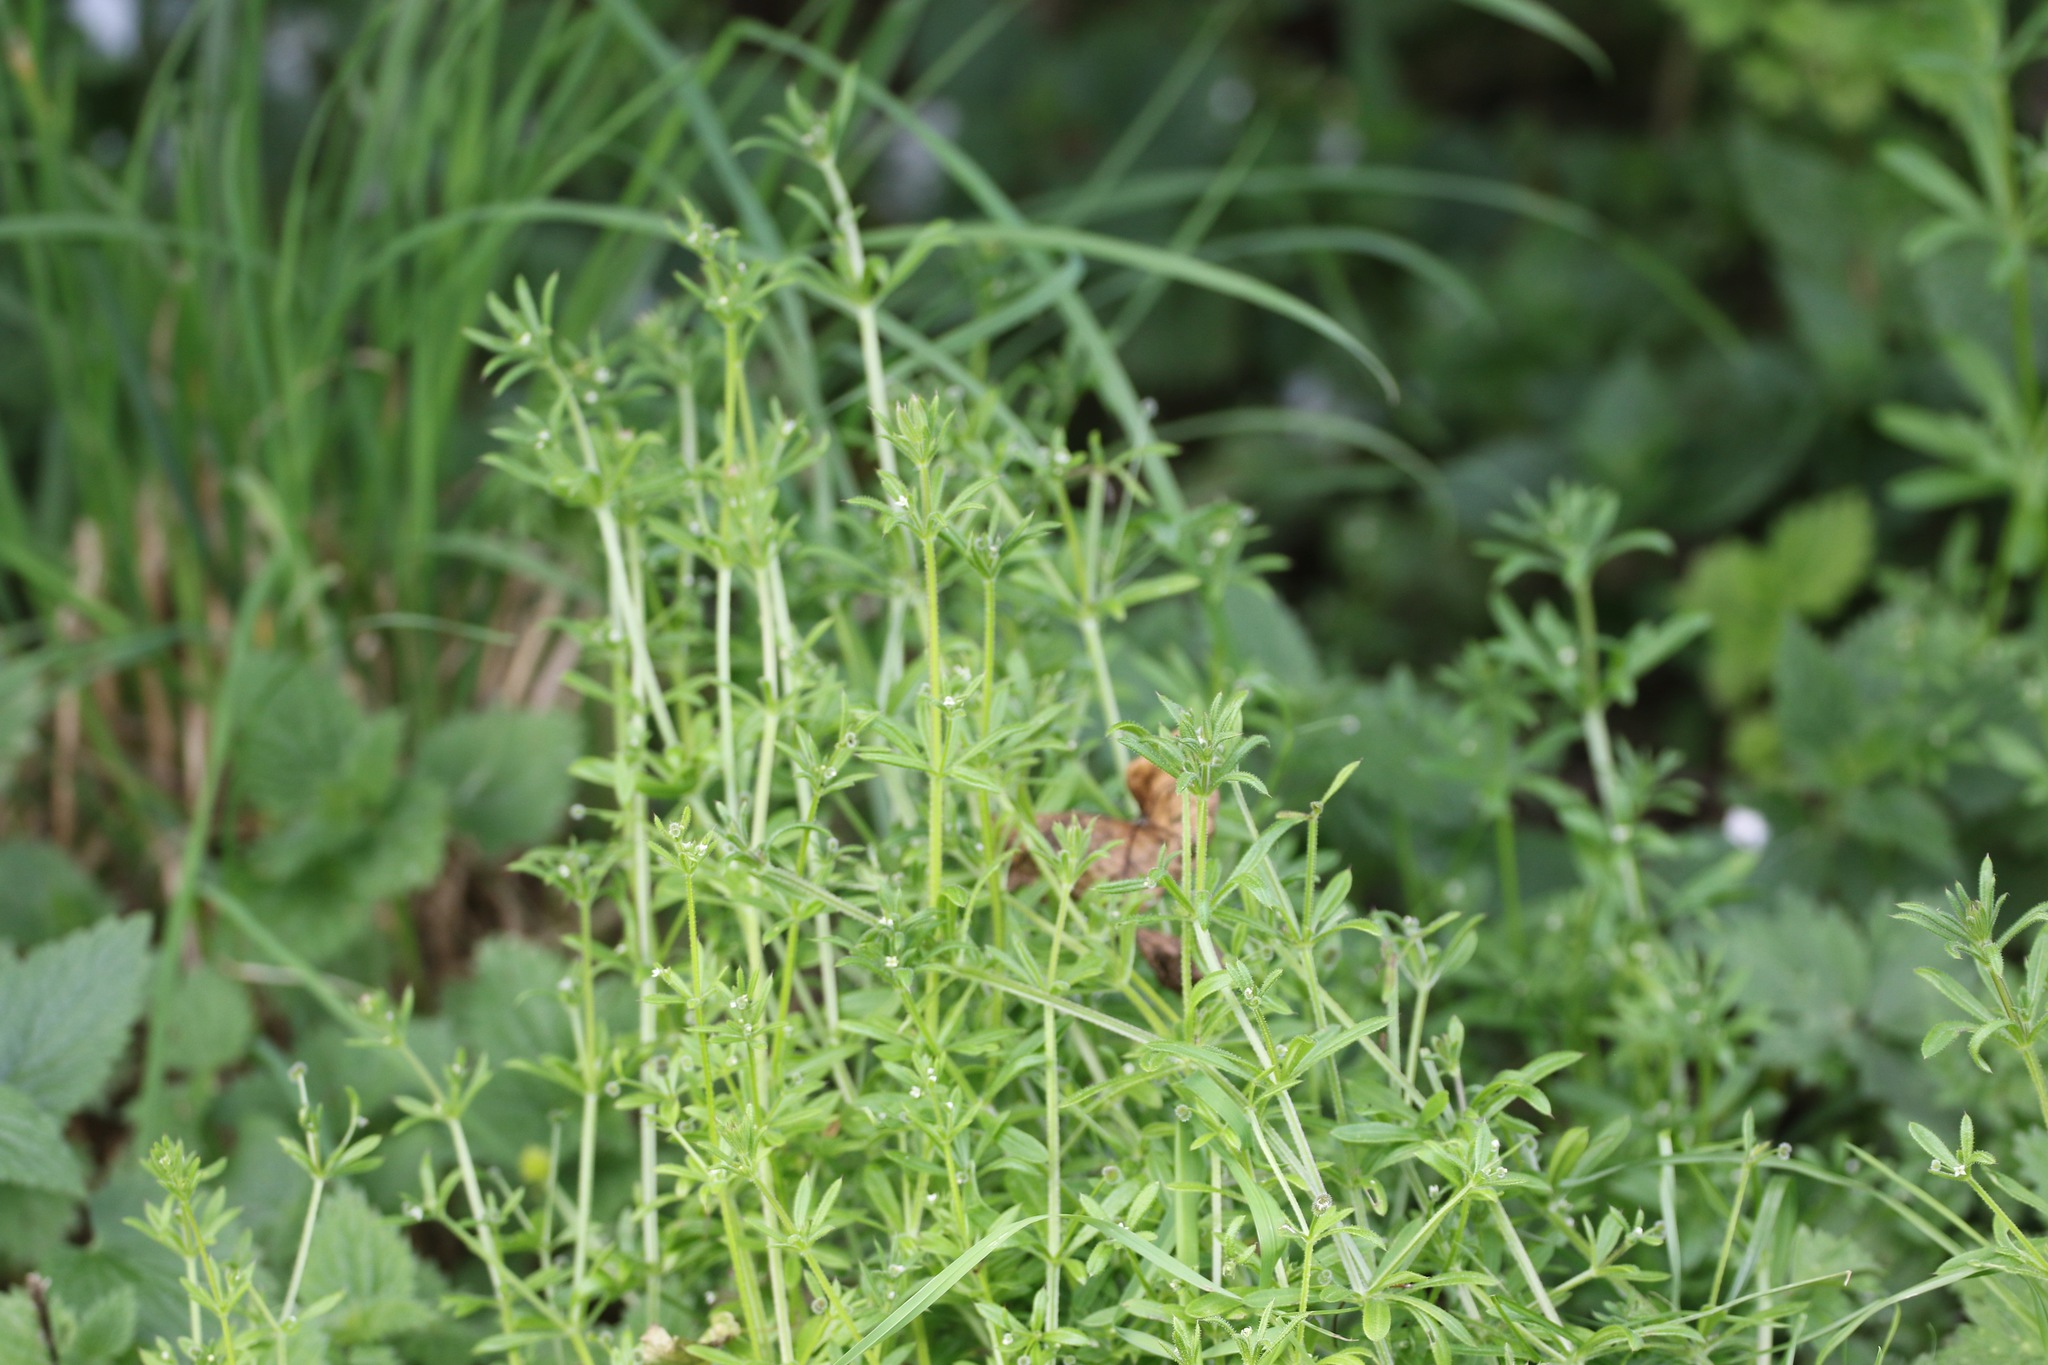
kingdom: Plantae
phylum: Tracheophyta
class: Magnoliopsida
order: Gentianales
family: Rubiaceae
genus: Galium
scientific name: Galium aparine
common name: Cleavers
